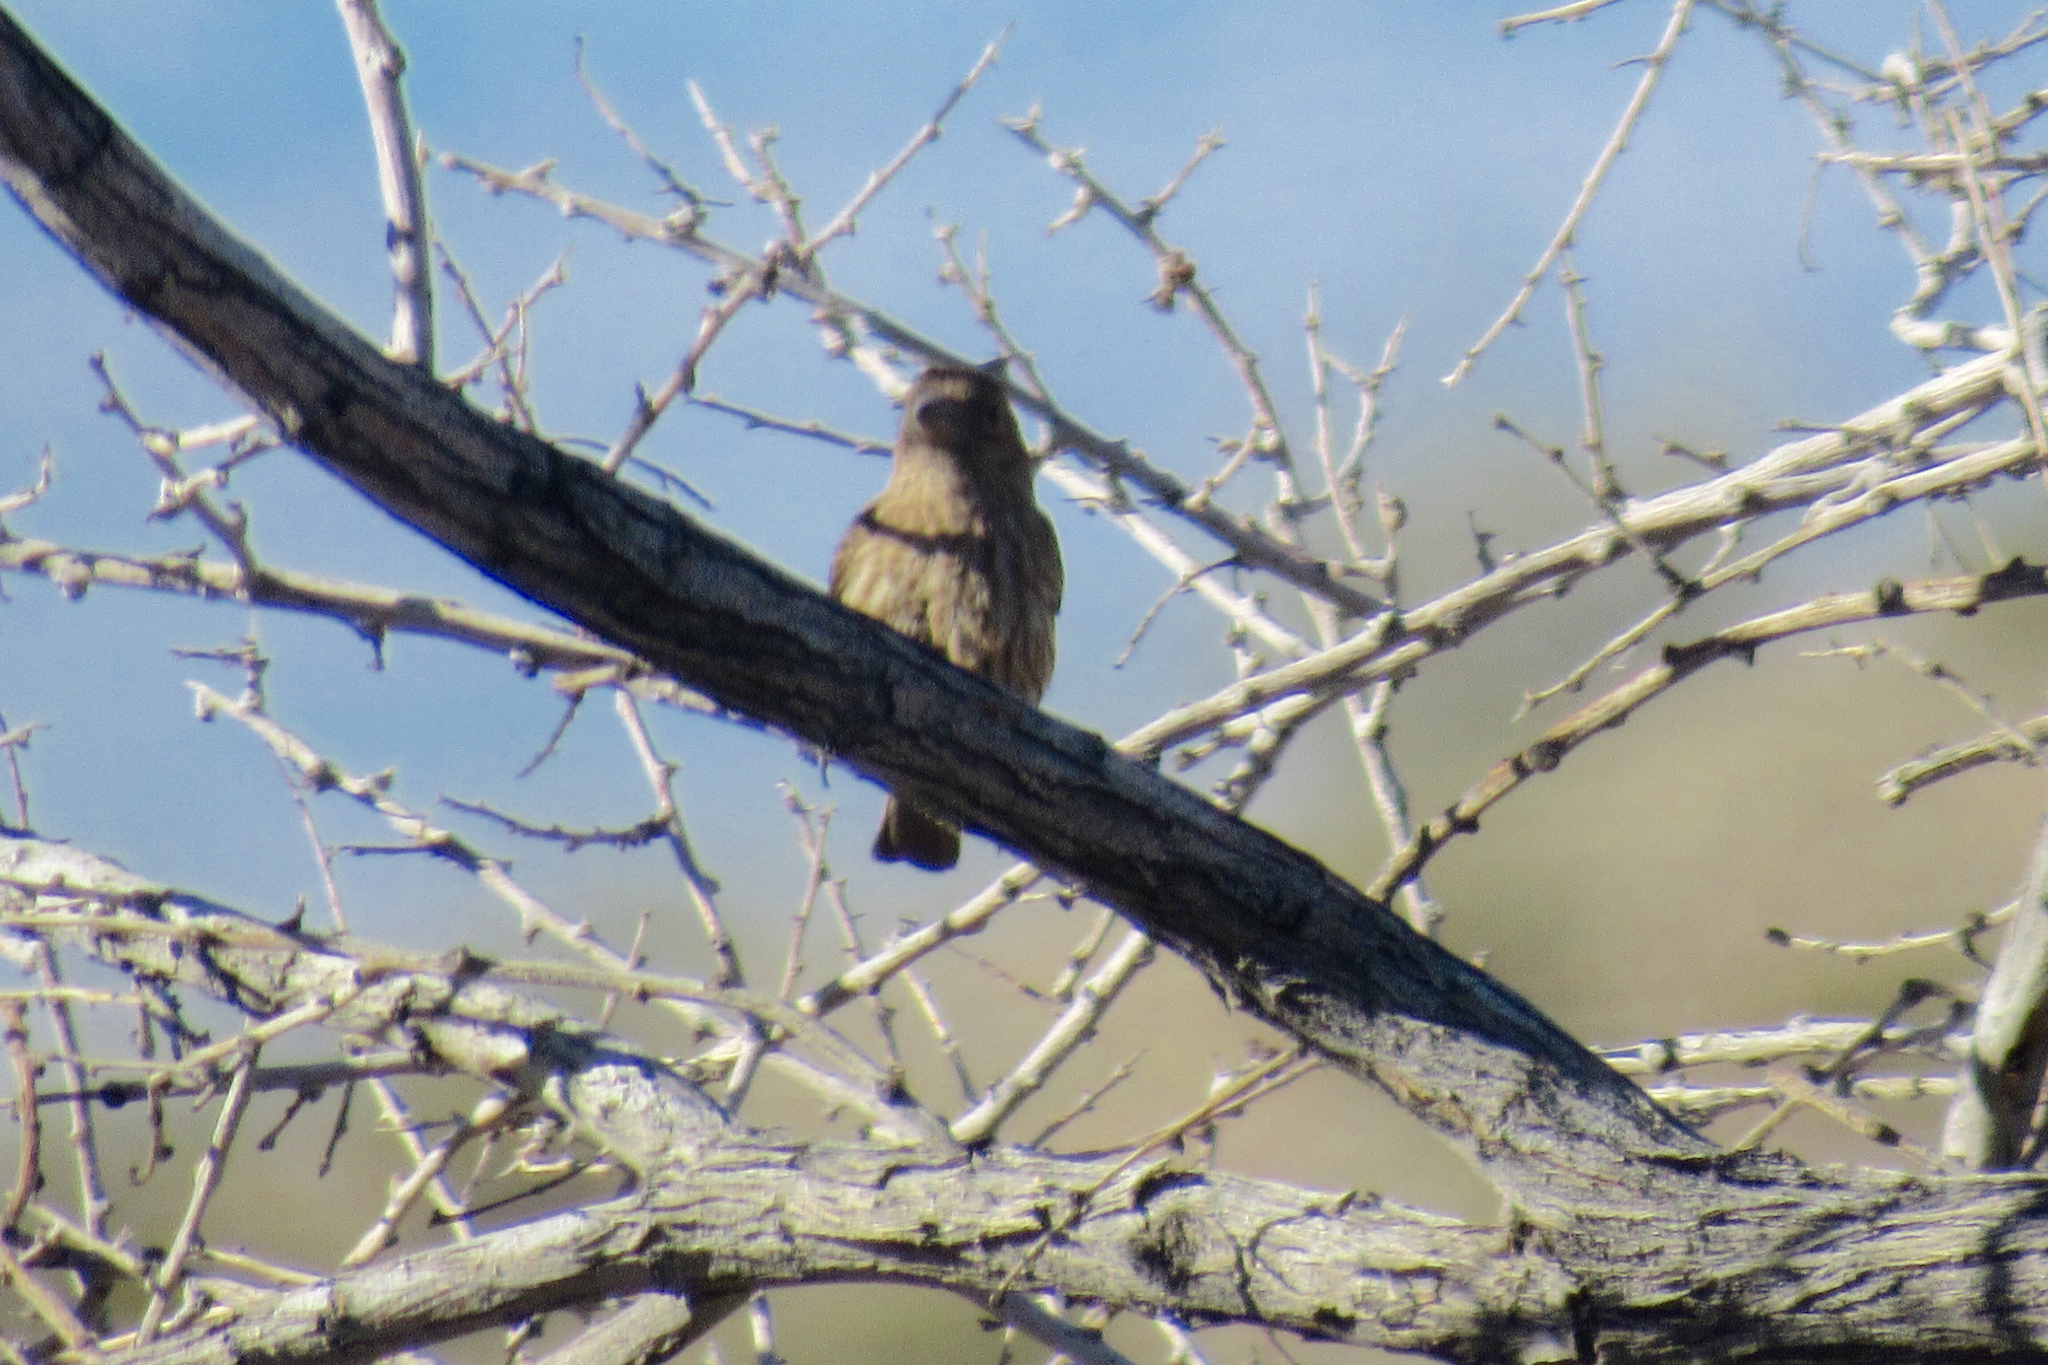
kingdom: Animalia
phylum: Chordata
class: Aves
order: Passeriformes
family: Fringillidae
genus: Haemorhous
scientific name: Haemorhous mexicanus
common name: House finch
